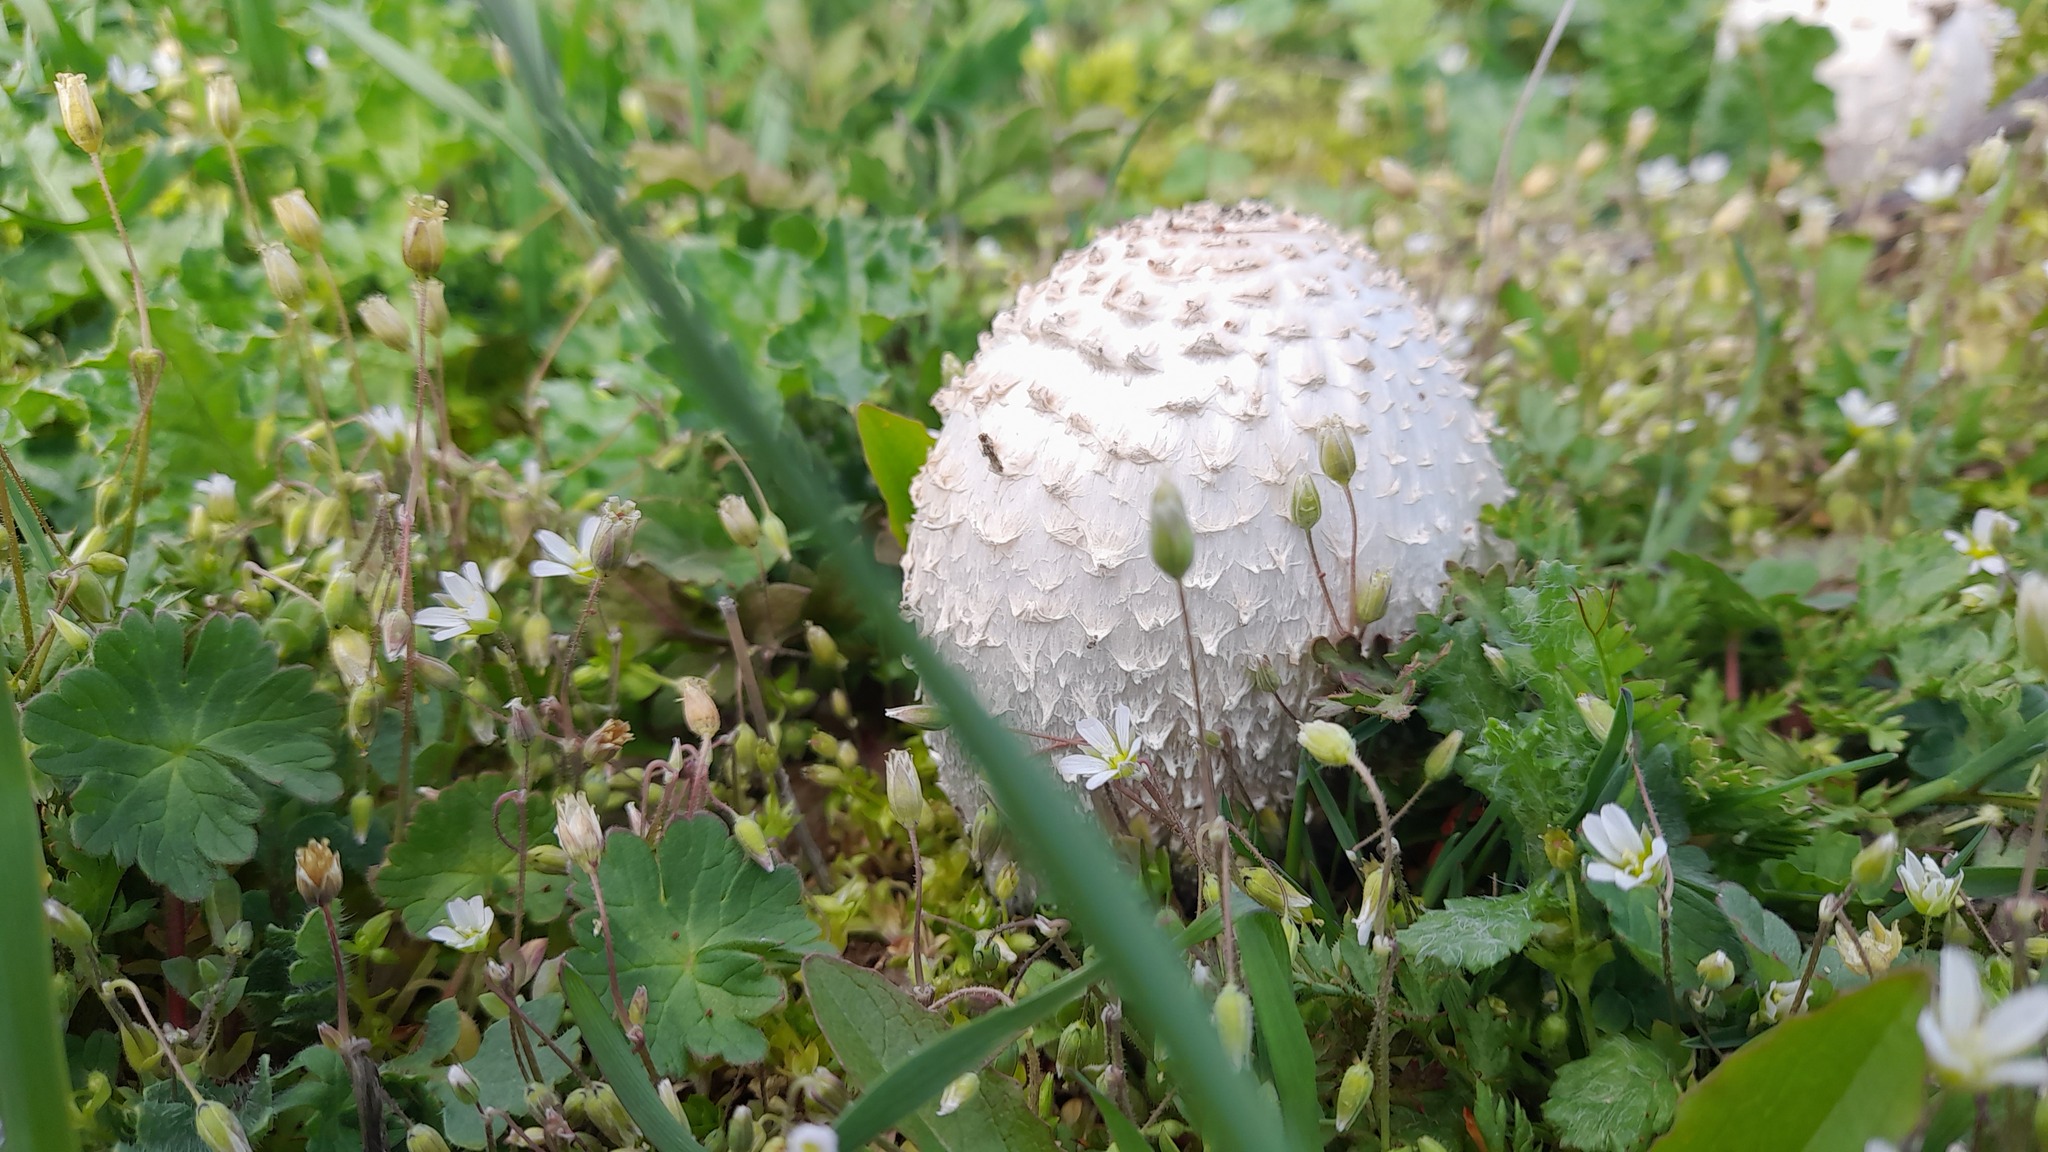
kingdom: Fungi
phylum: Basidiomycota
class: Agaricomycetes
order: Agaricales
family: Agaricaceae
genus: Coprinus
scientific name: Coprinus comatus
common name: Lawyer's wig
